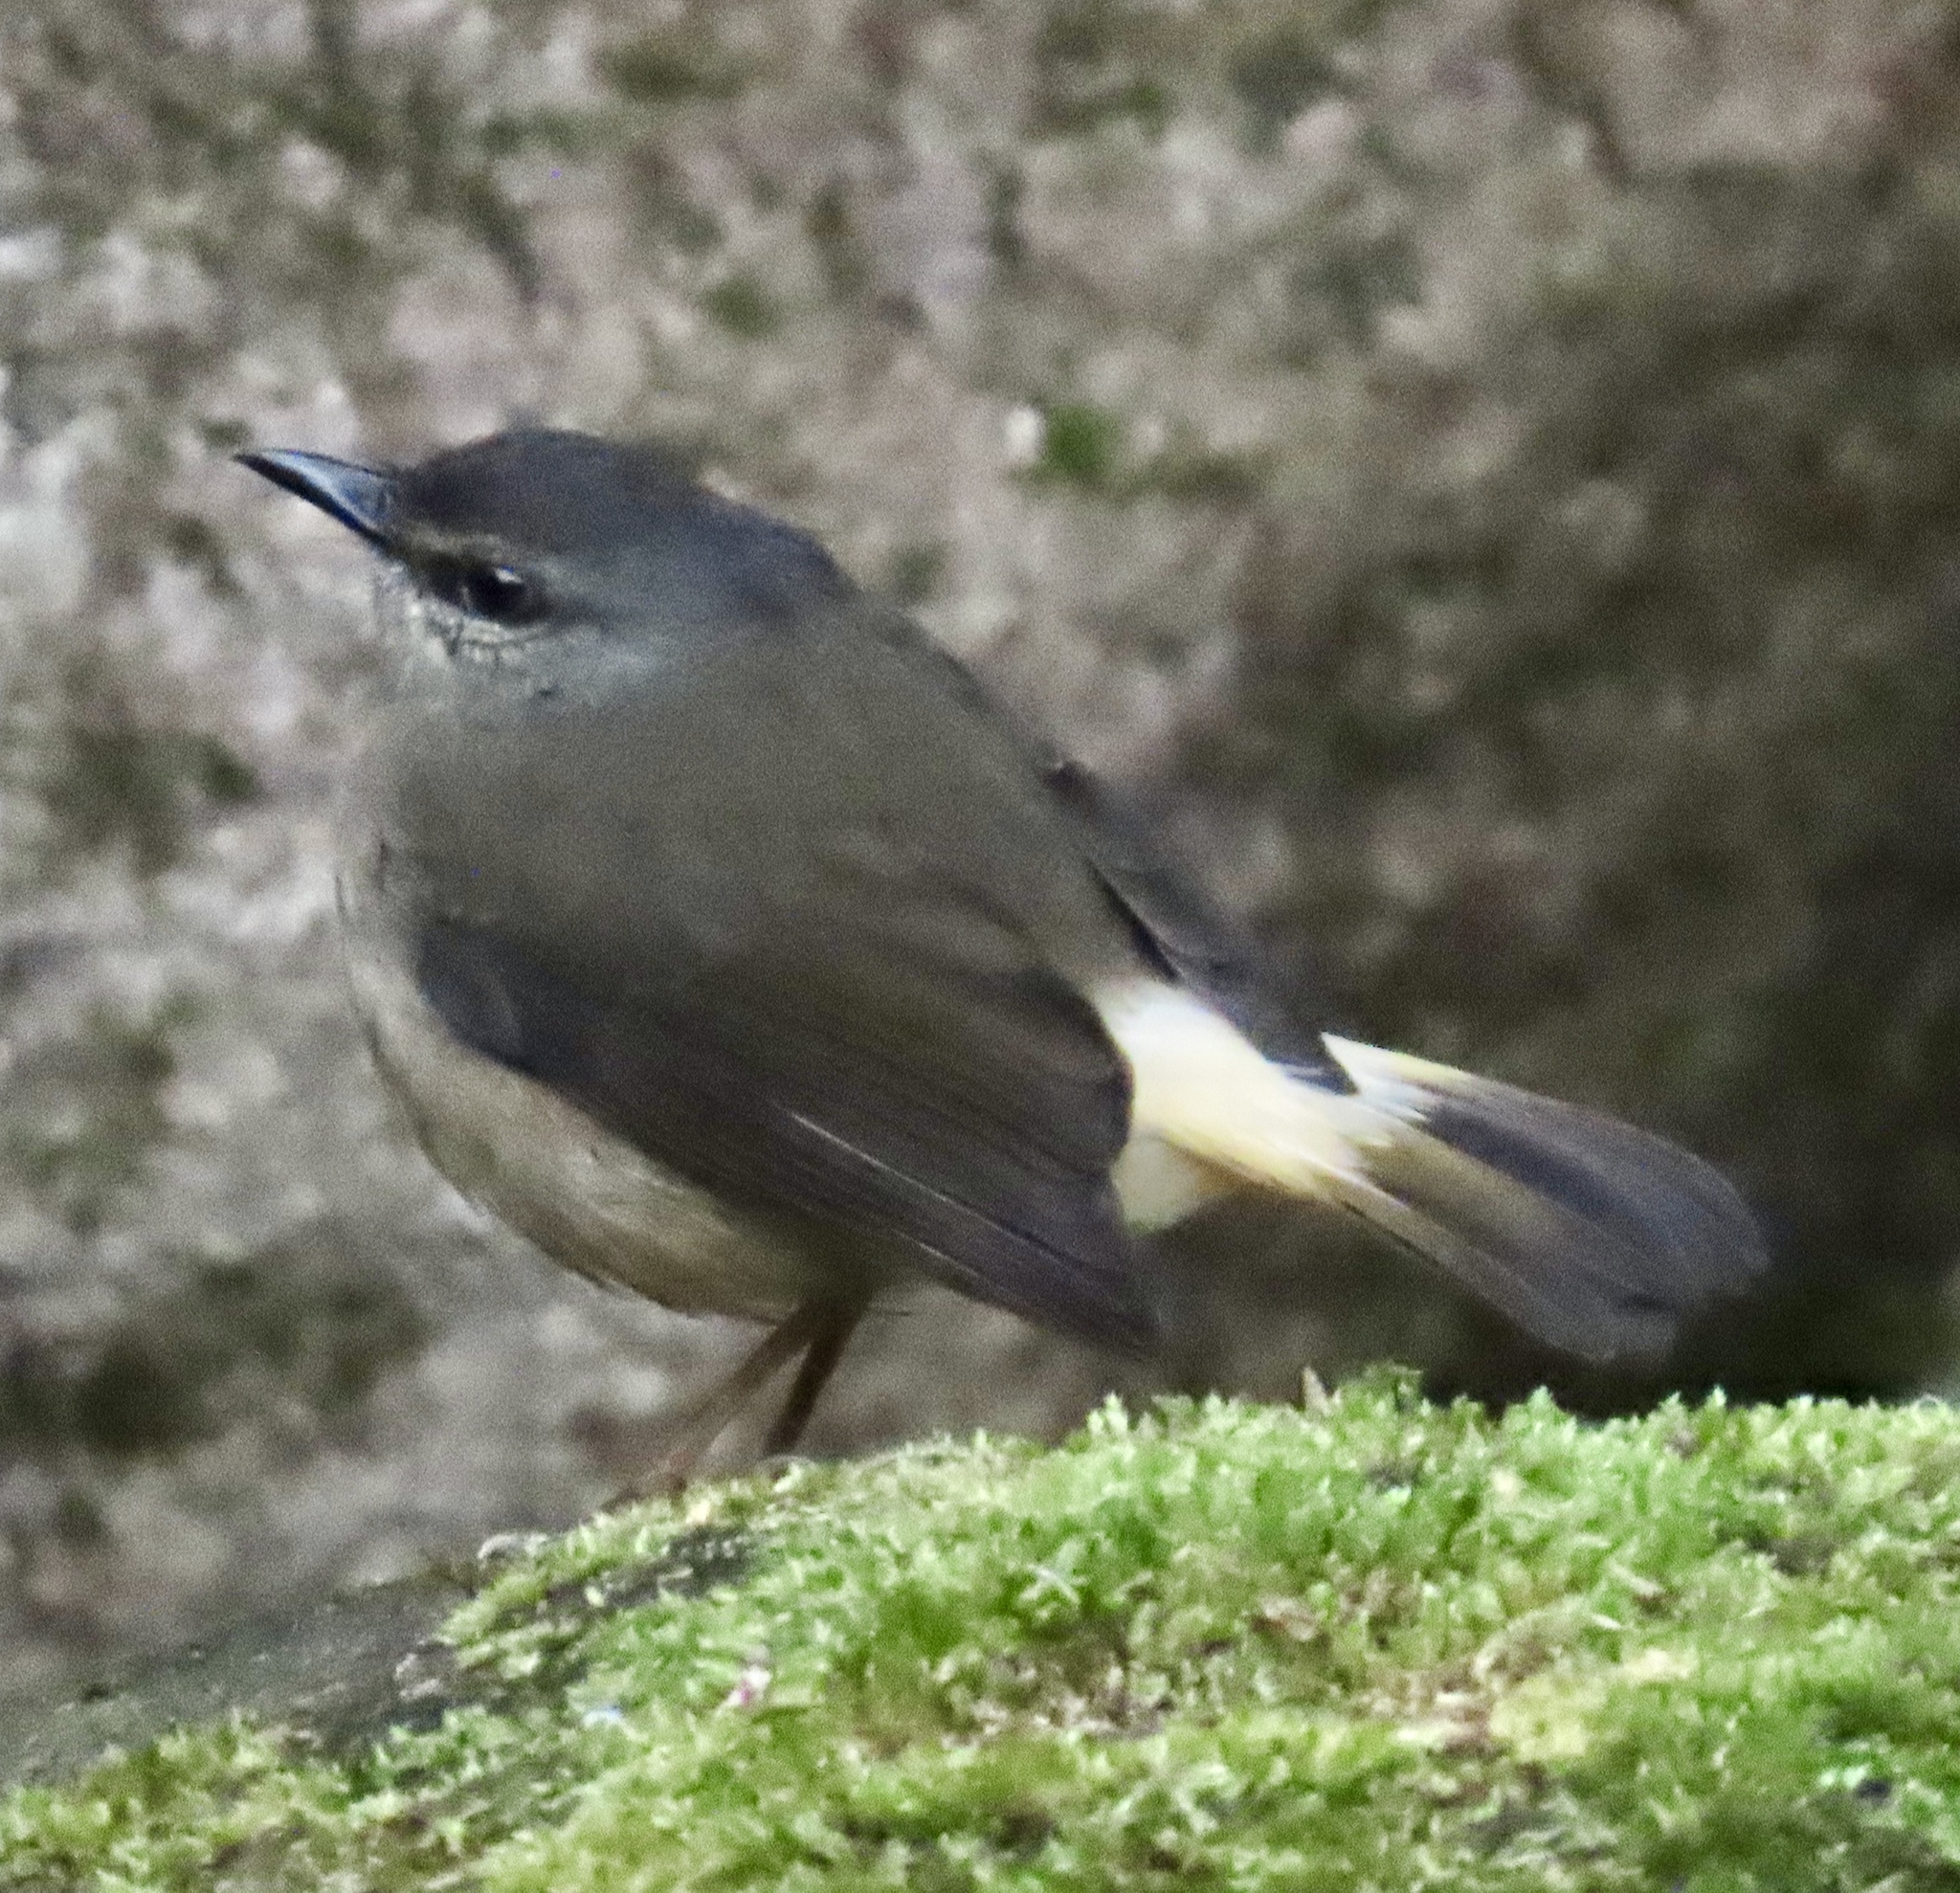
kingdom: Animalia
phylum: Chordata
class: Aves
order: Passeriformes
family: Parulidae
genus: Myiothlypis
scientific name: Myiothlypis fulvicauda
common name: Buff-rumped warbler
